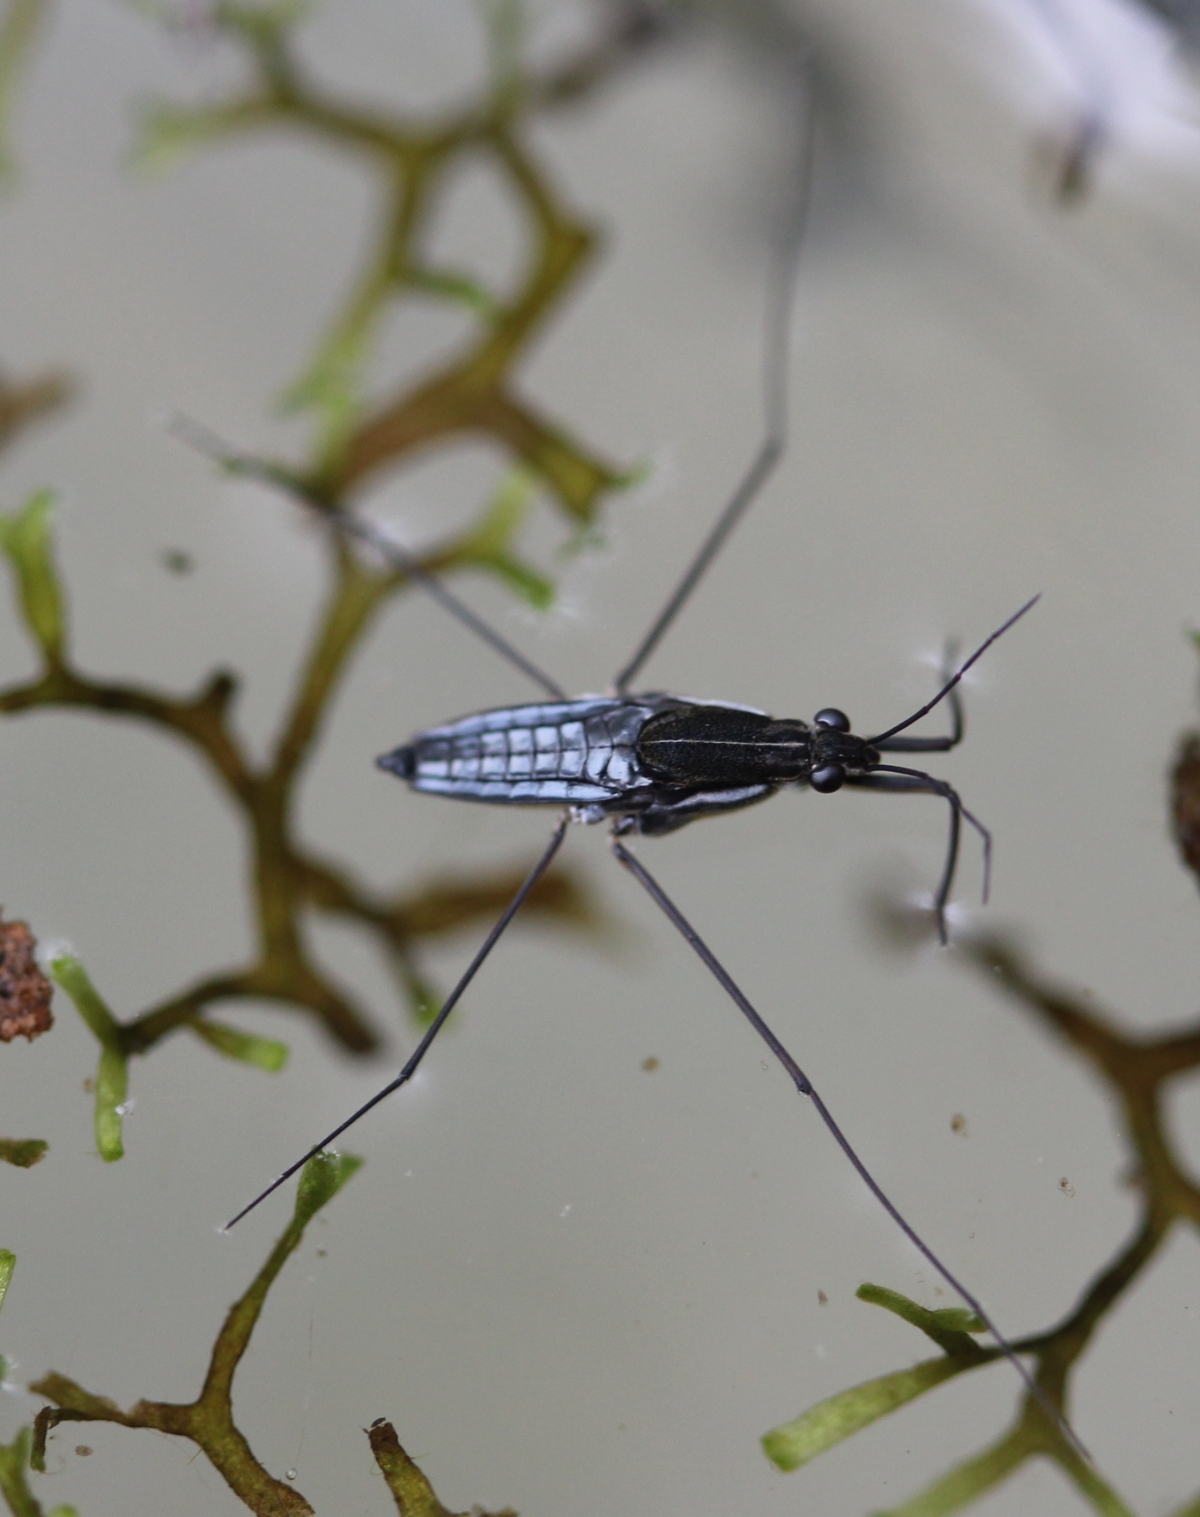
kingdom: Animalia
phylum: Arthropoda
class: Insecta
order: Hemiptera
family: Gerridae
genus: Gerris
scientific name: Gerris
